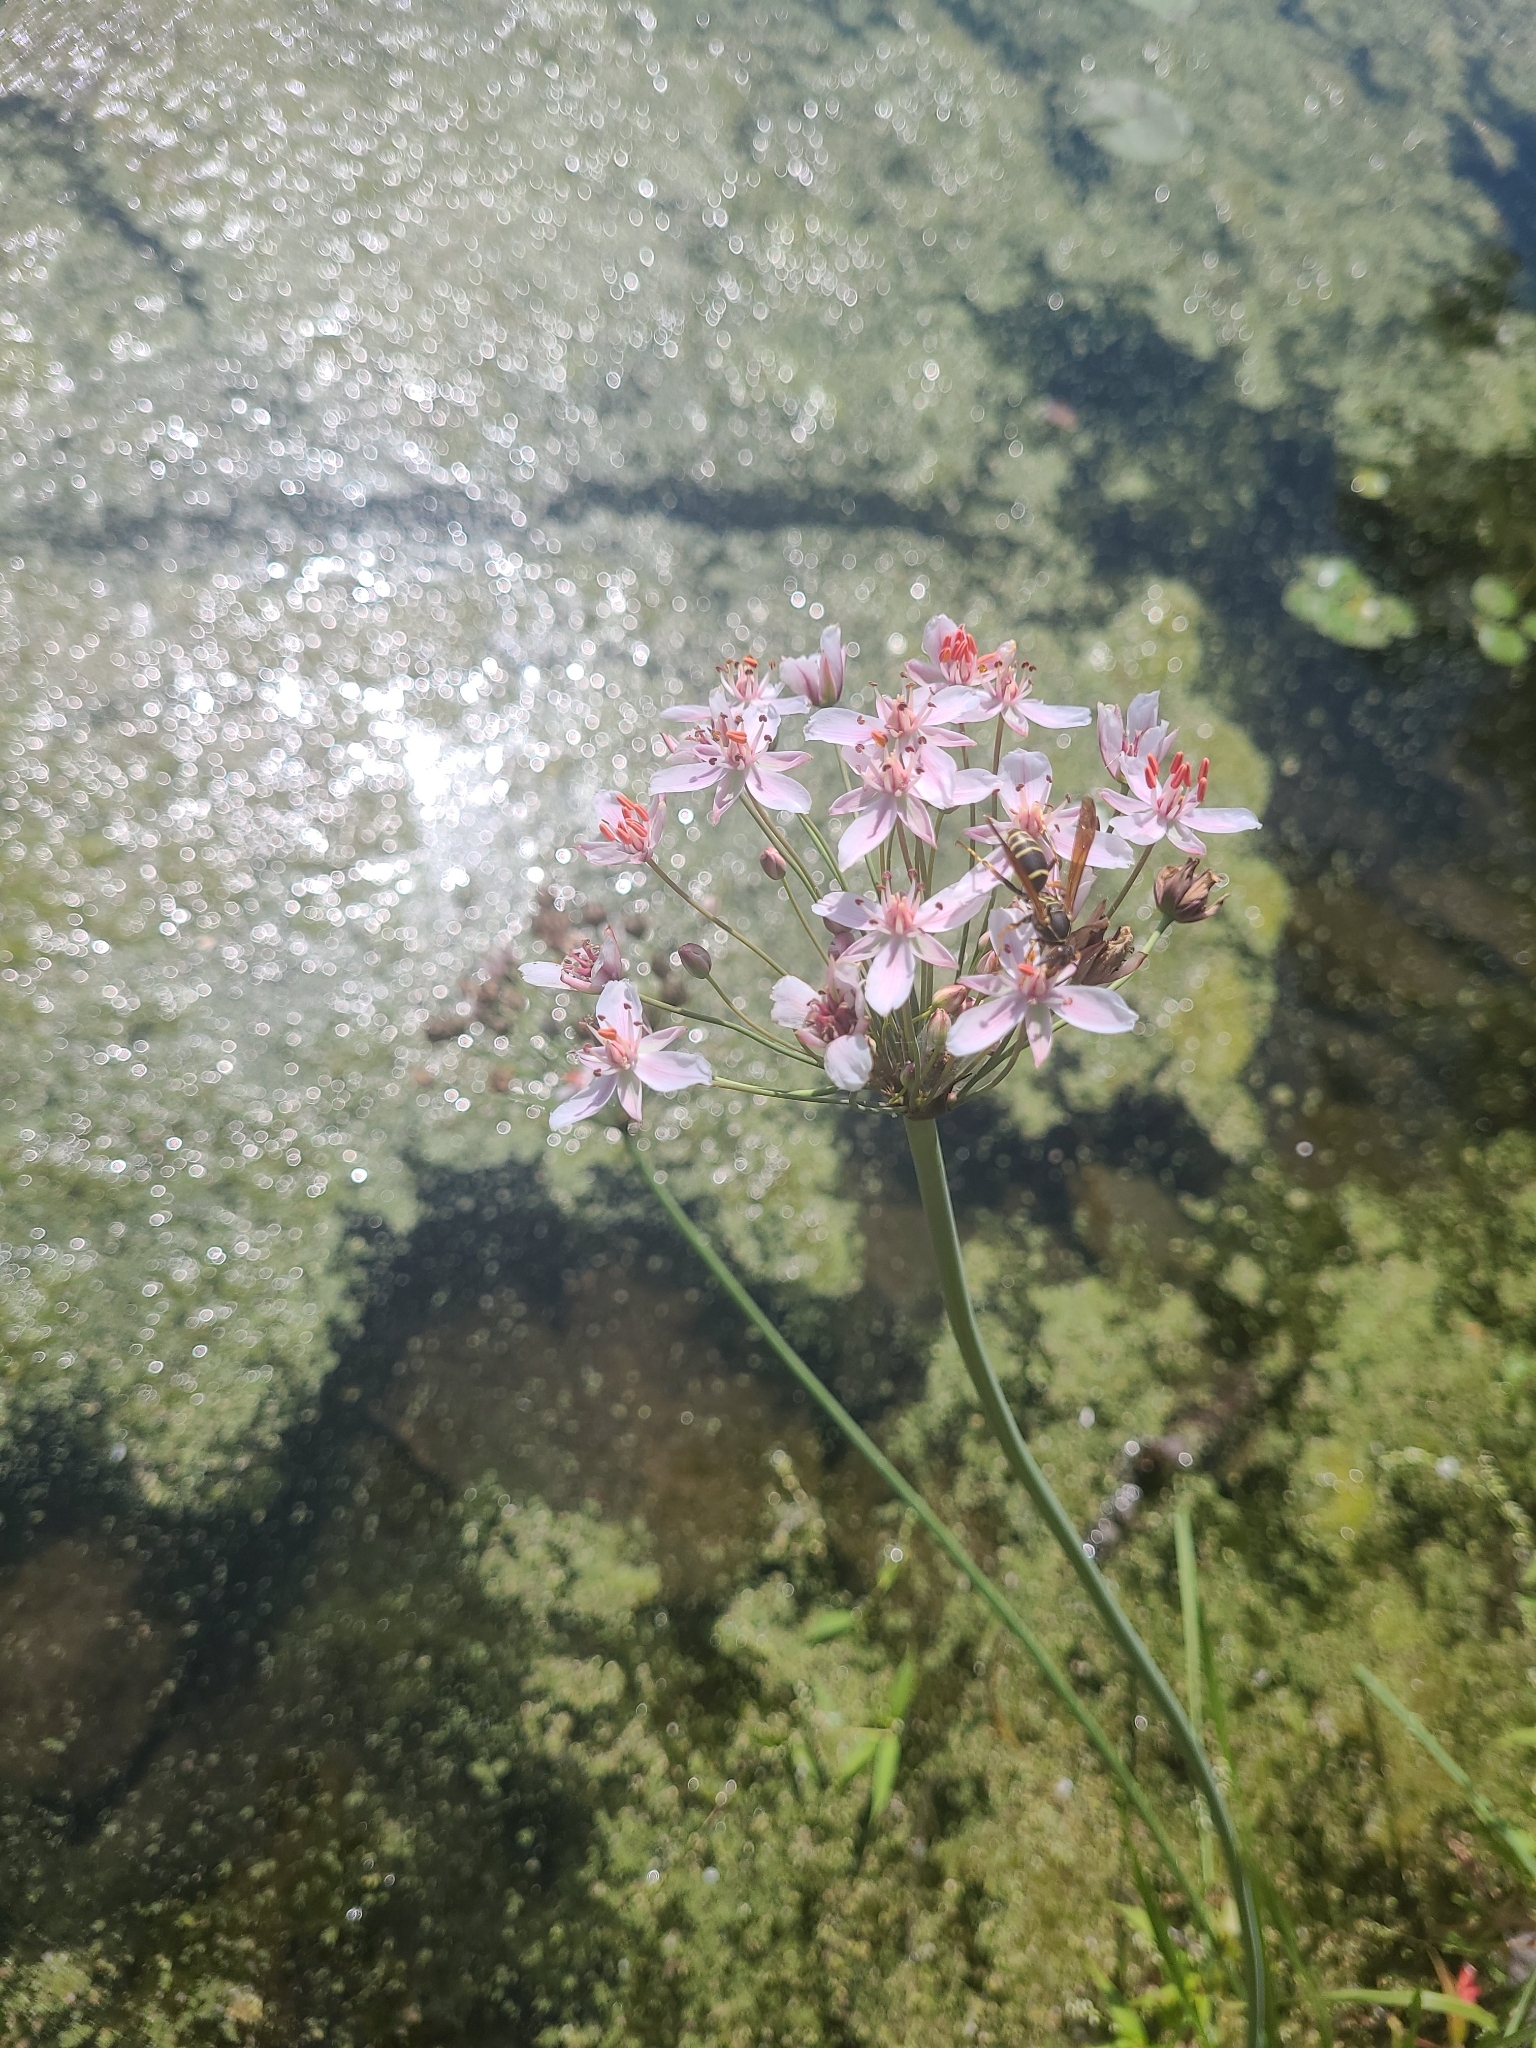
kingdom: Plantae
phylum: Tracheophyta
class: Liliopsida
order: Alismatales
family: Butomaceae
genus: Butomus
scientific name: Butomus umbellatus
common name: Flowering-rush
